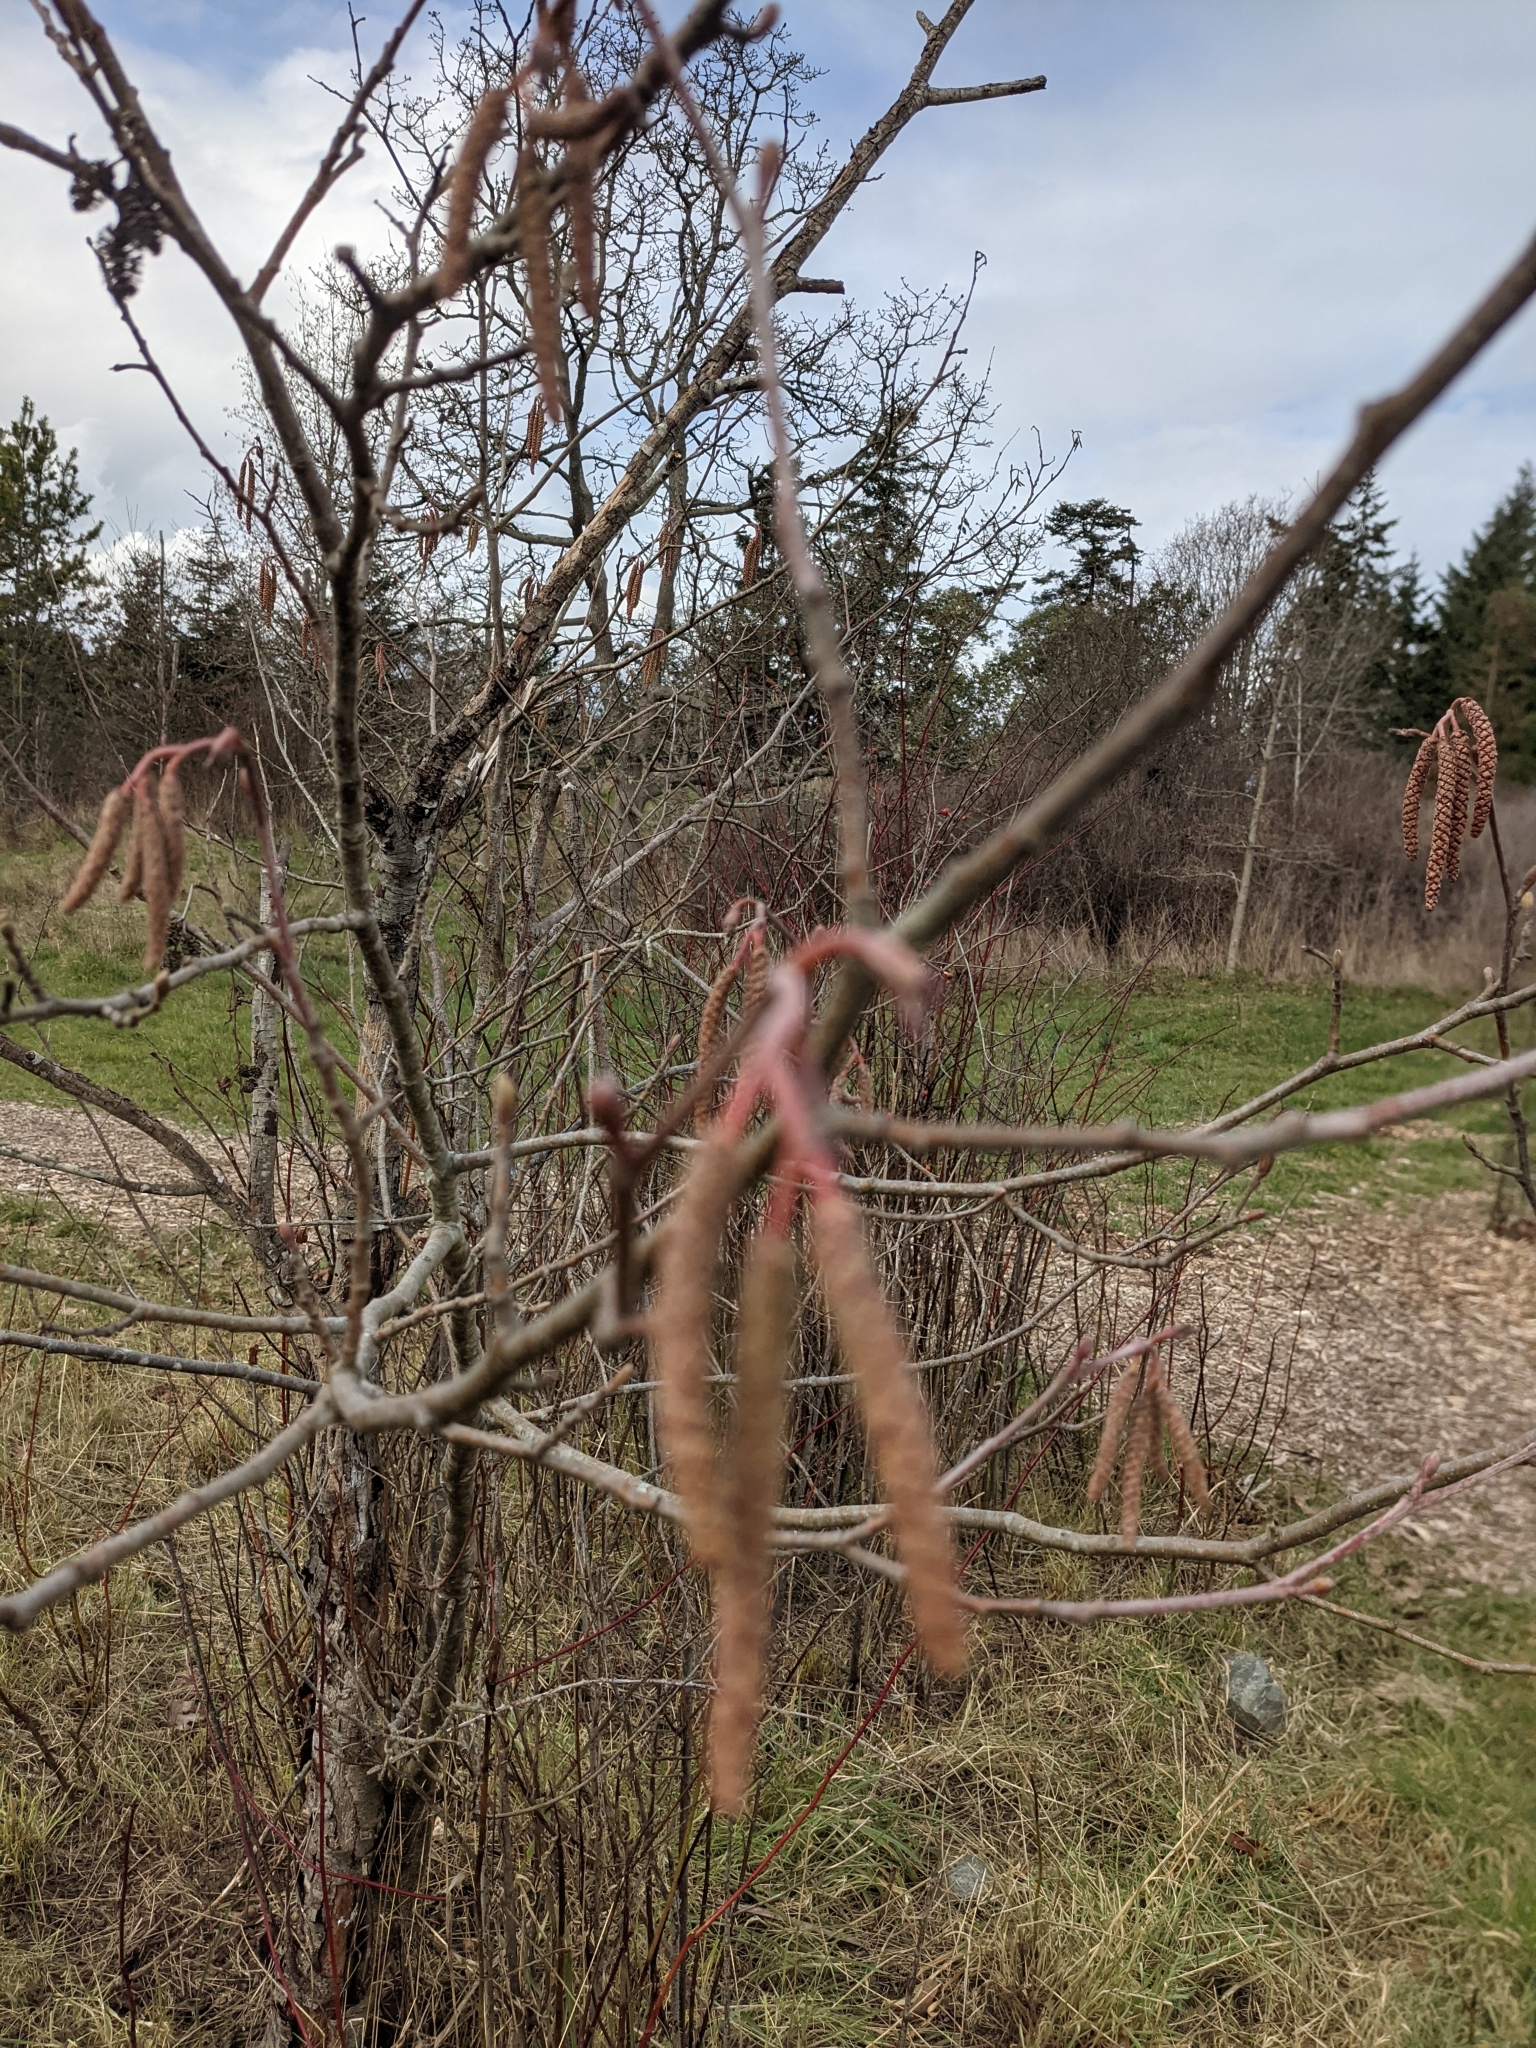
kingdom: Plantae
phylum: Tracheophyta
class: Magnoliopsida
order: Fagales
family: Betulaceae
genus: Alnus
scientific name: Alnus rubra
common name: Red alder
